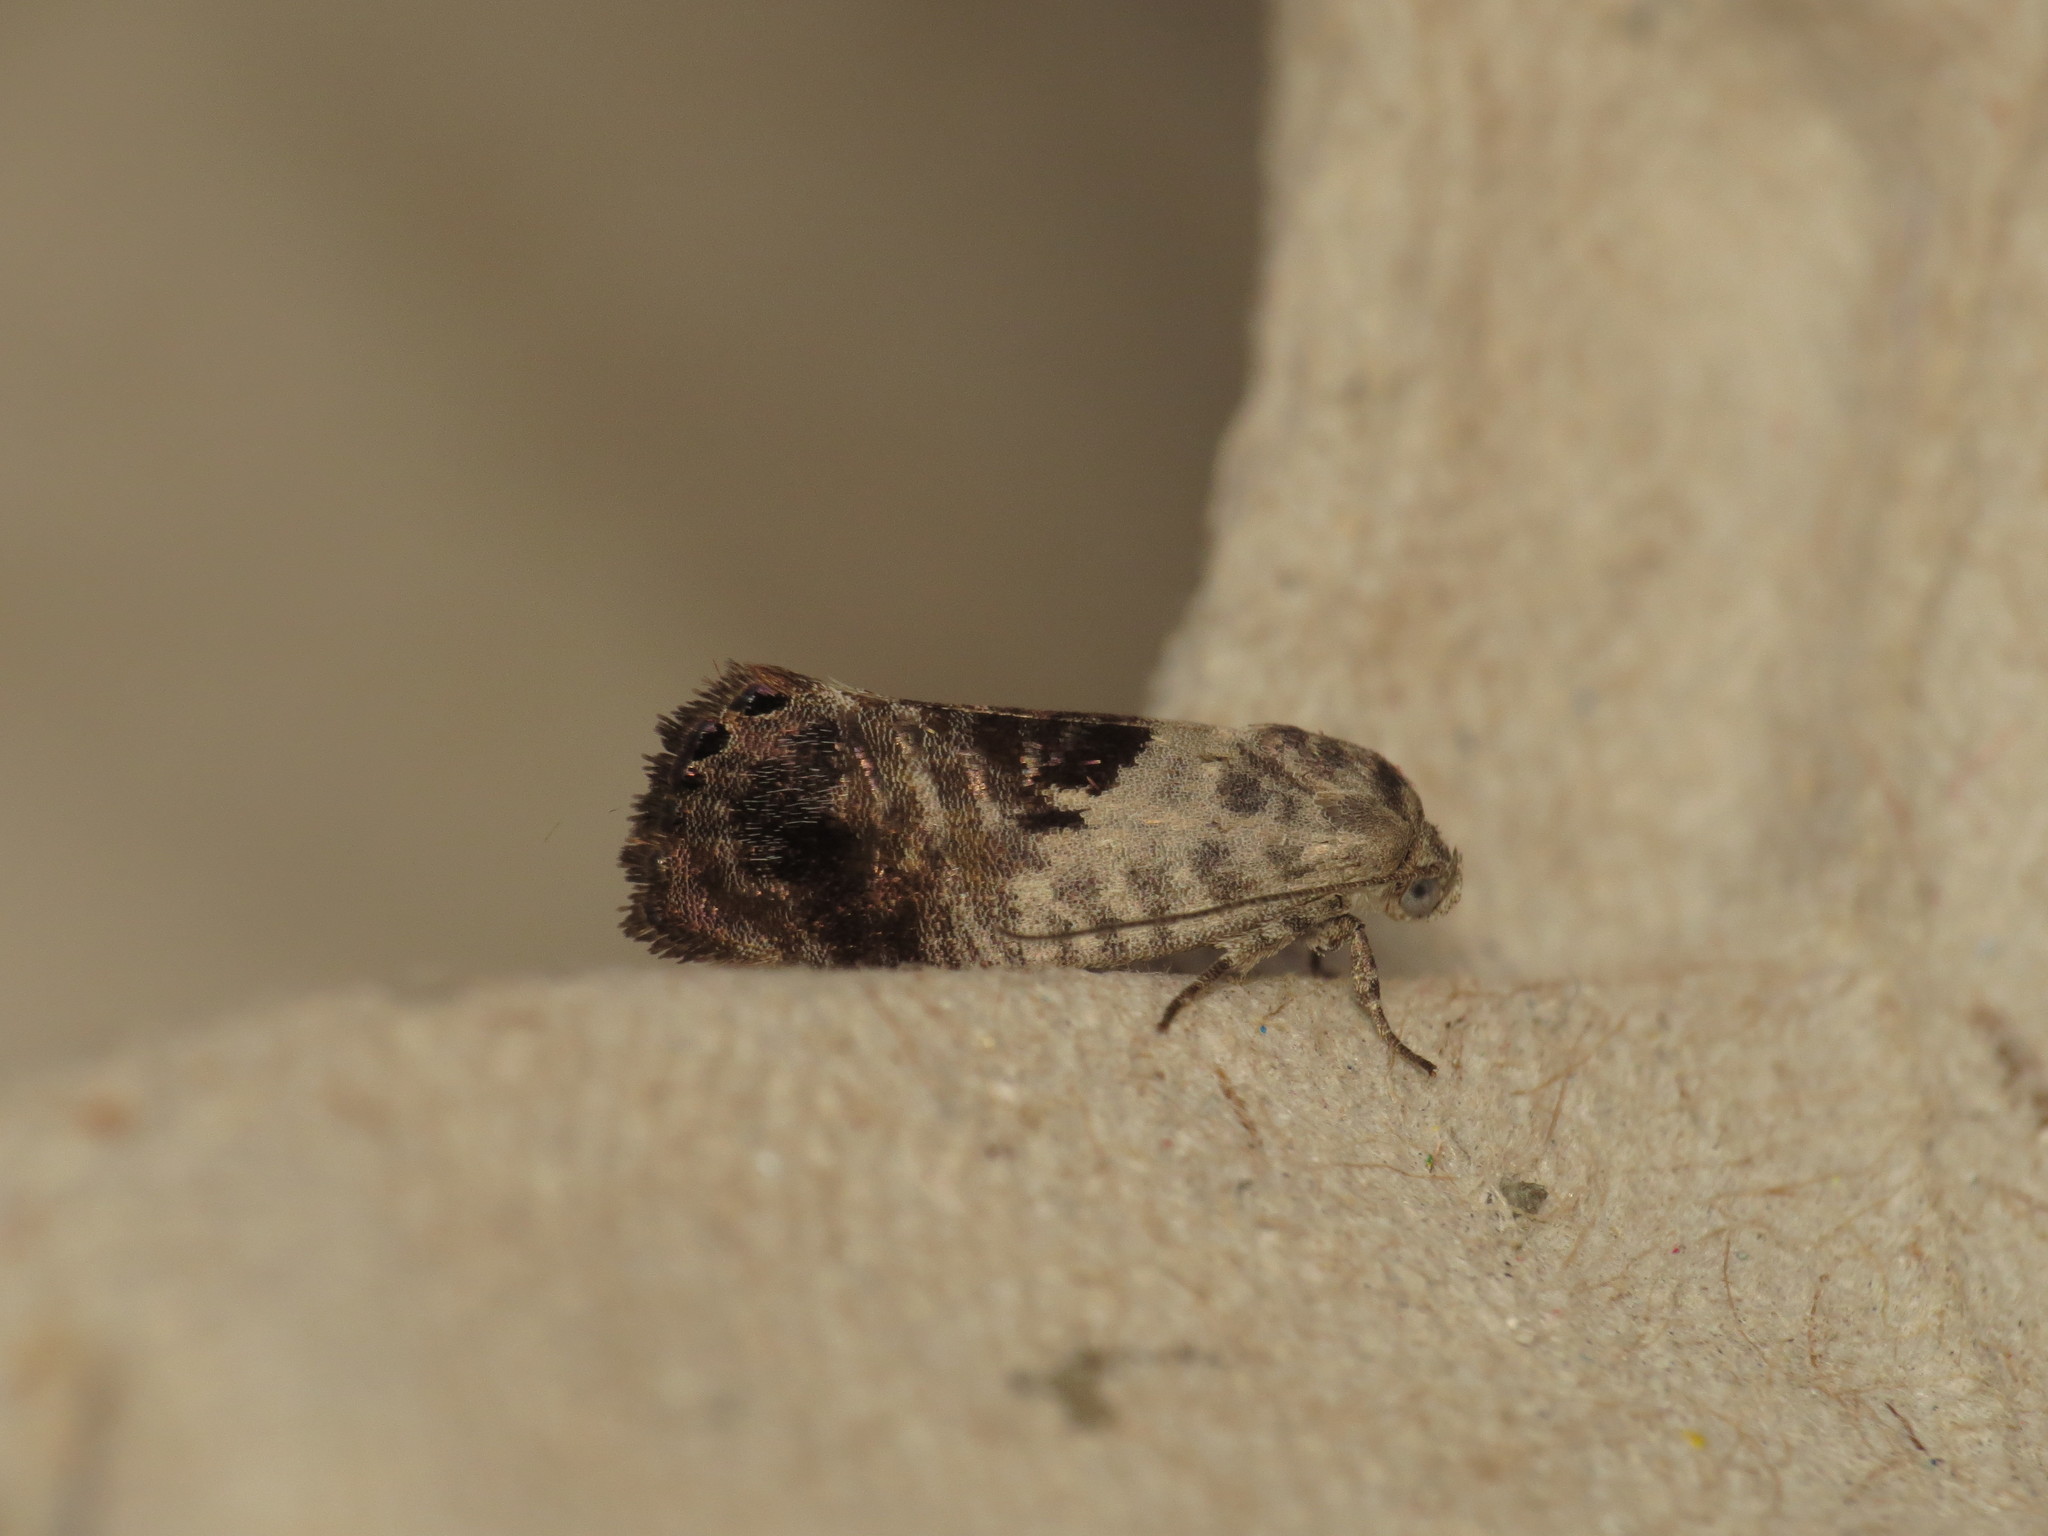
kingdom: Animalia
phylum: Arthropoda
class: Insecta
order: Lepidoptera
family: Depressariidae
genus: Eupselia
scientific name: Eupselia carpocapsella
